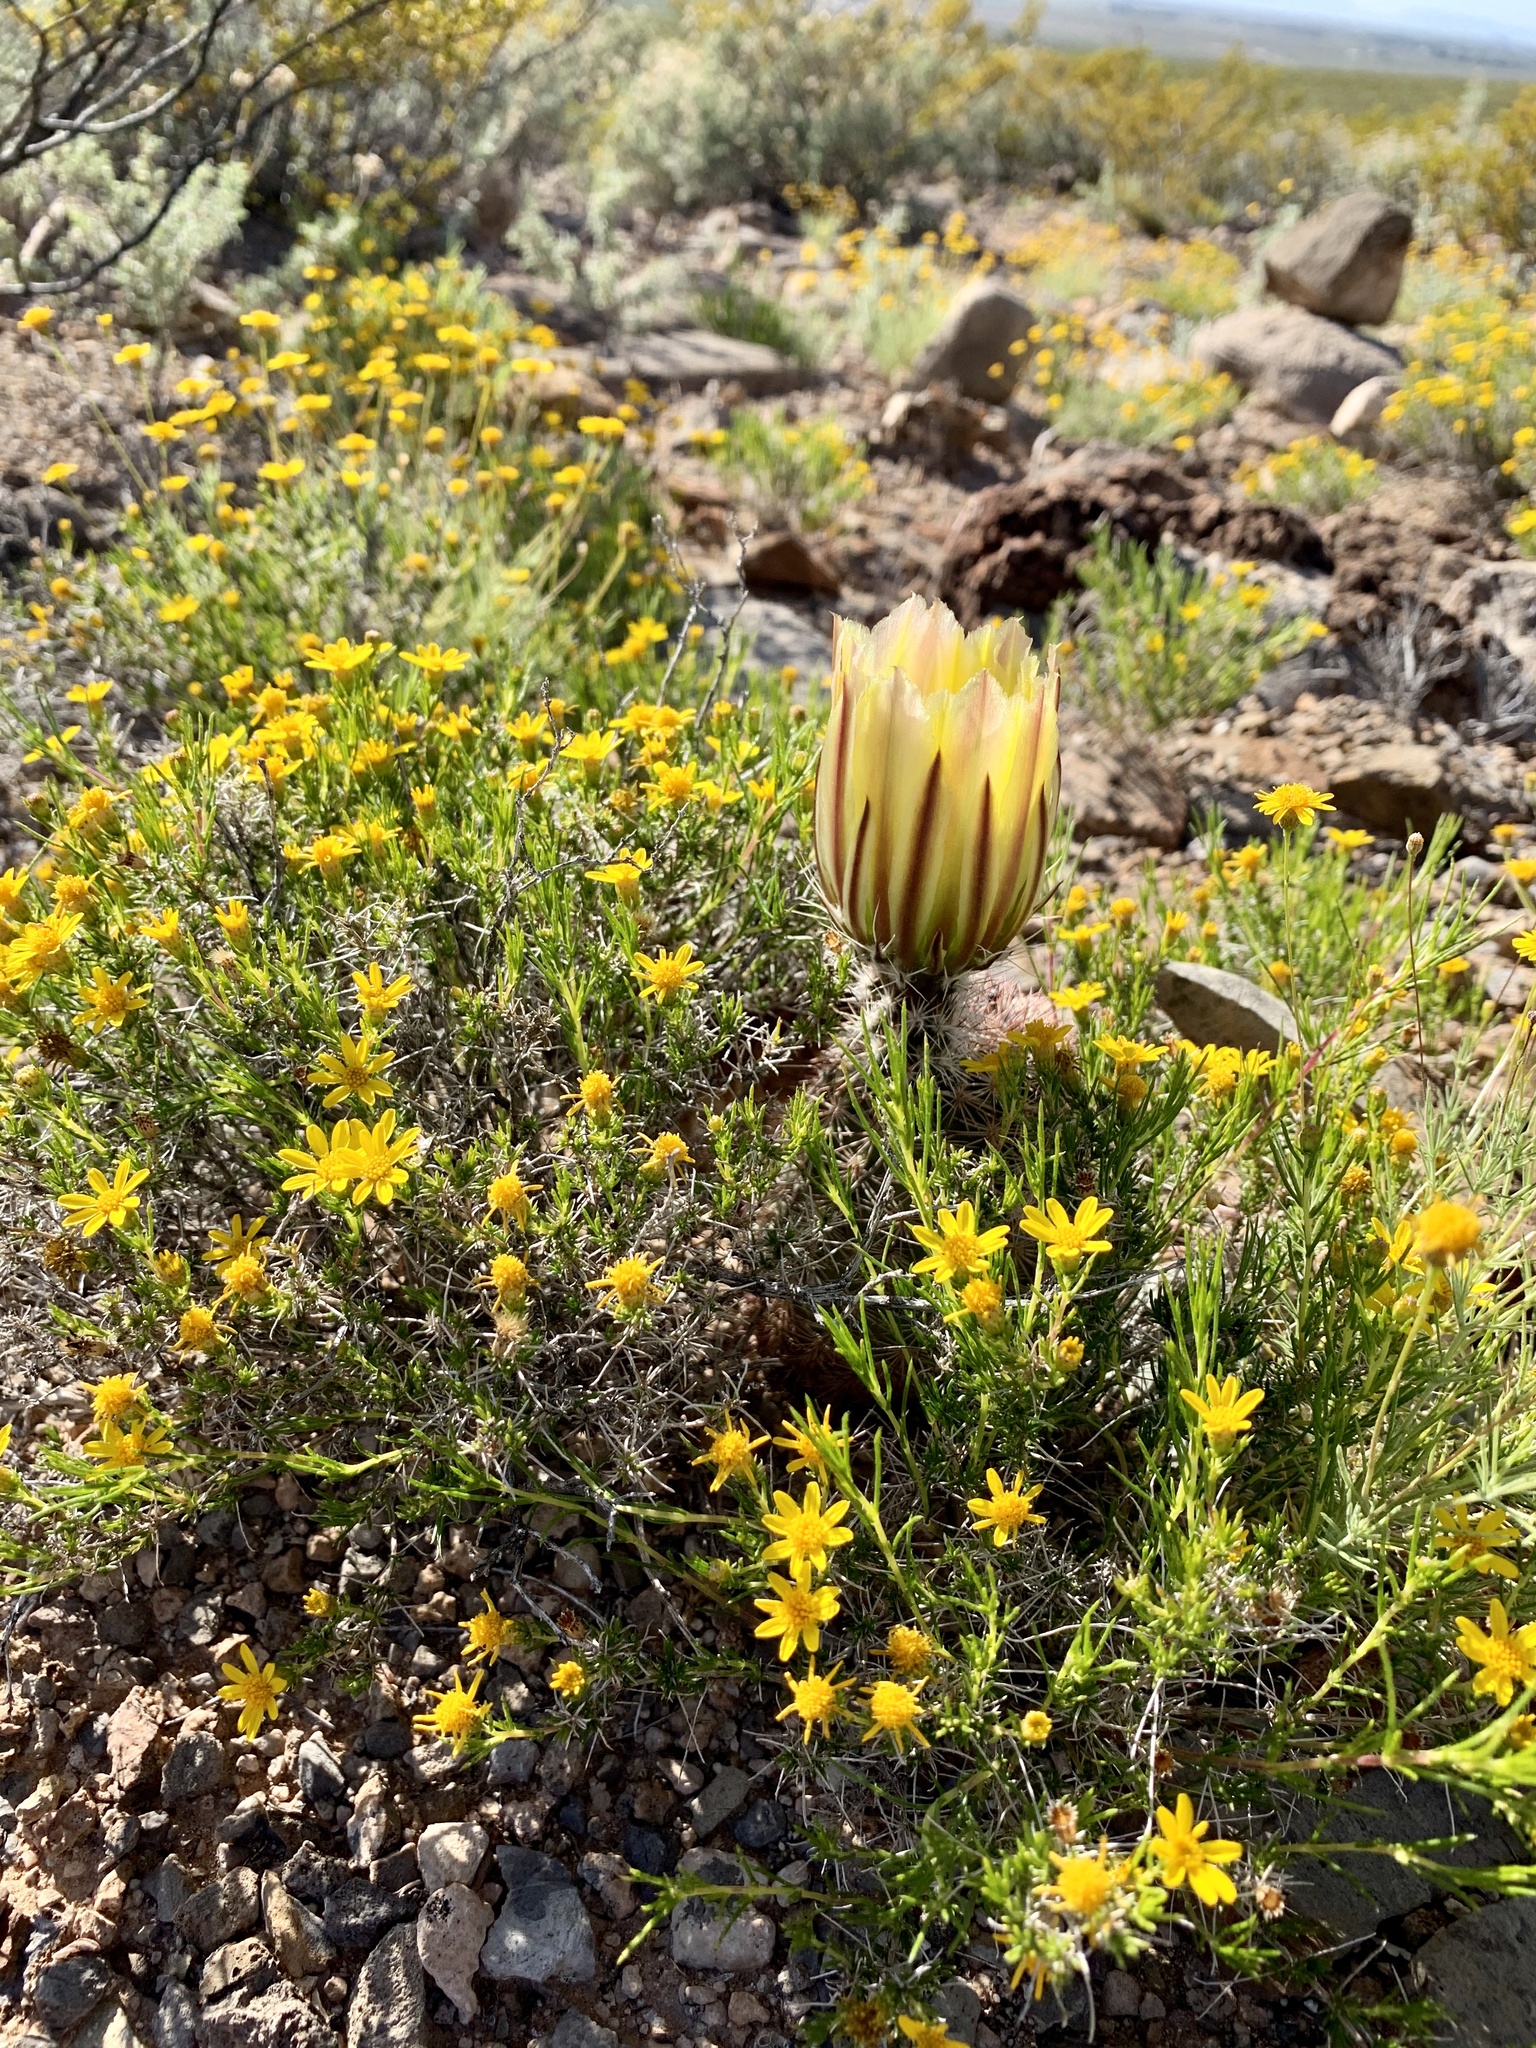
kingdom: Plantae
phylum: Tracheophyta
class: Magnoliopsida
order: Caryophyllales
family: Cactaceae
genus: Echinocereus
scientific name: Echinocereus dasyacanthus
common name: Spiny hedgehog cactus
